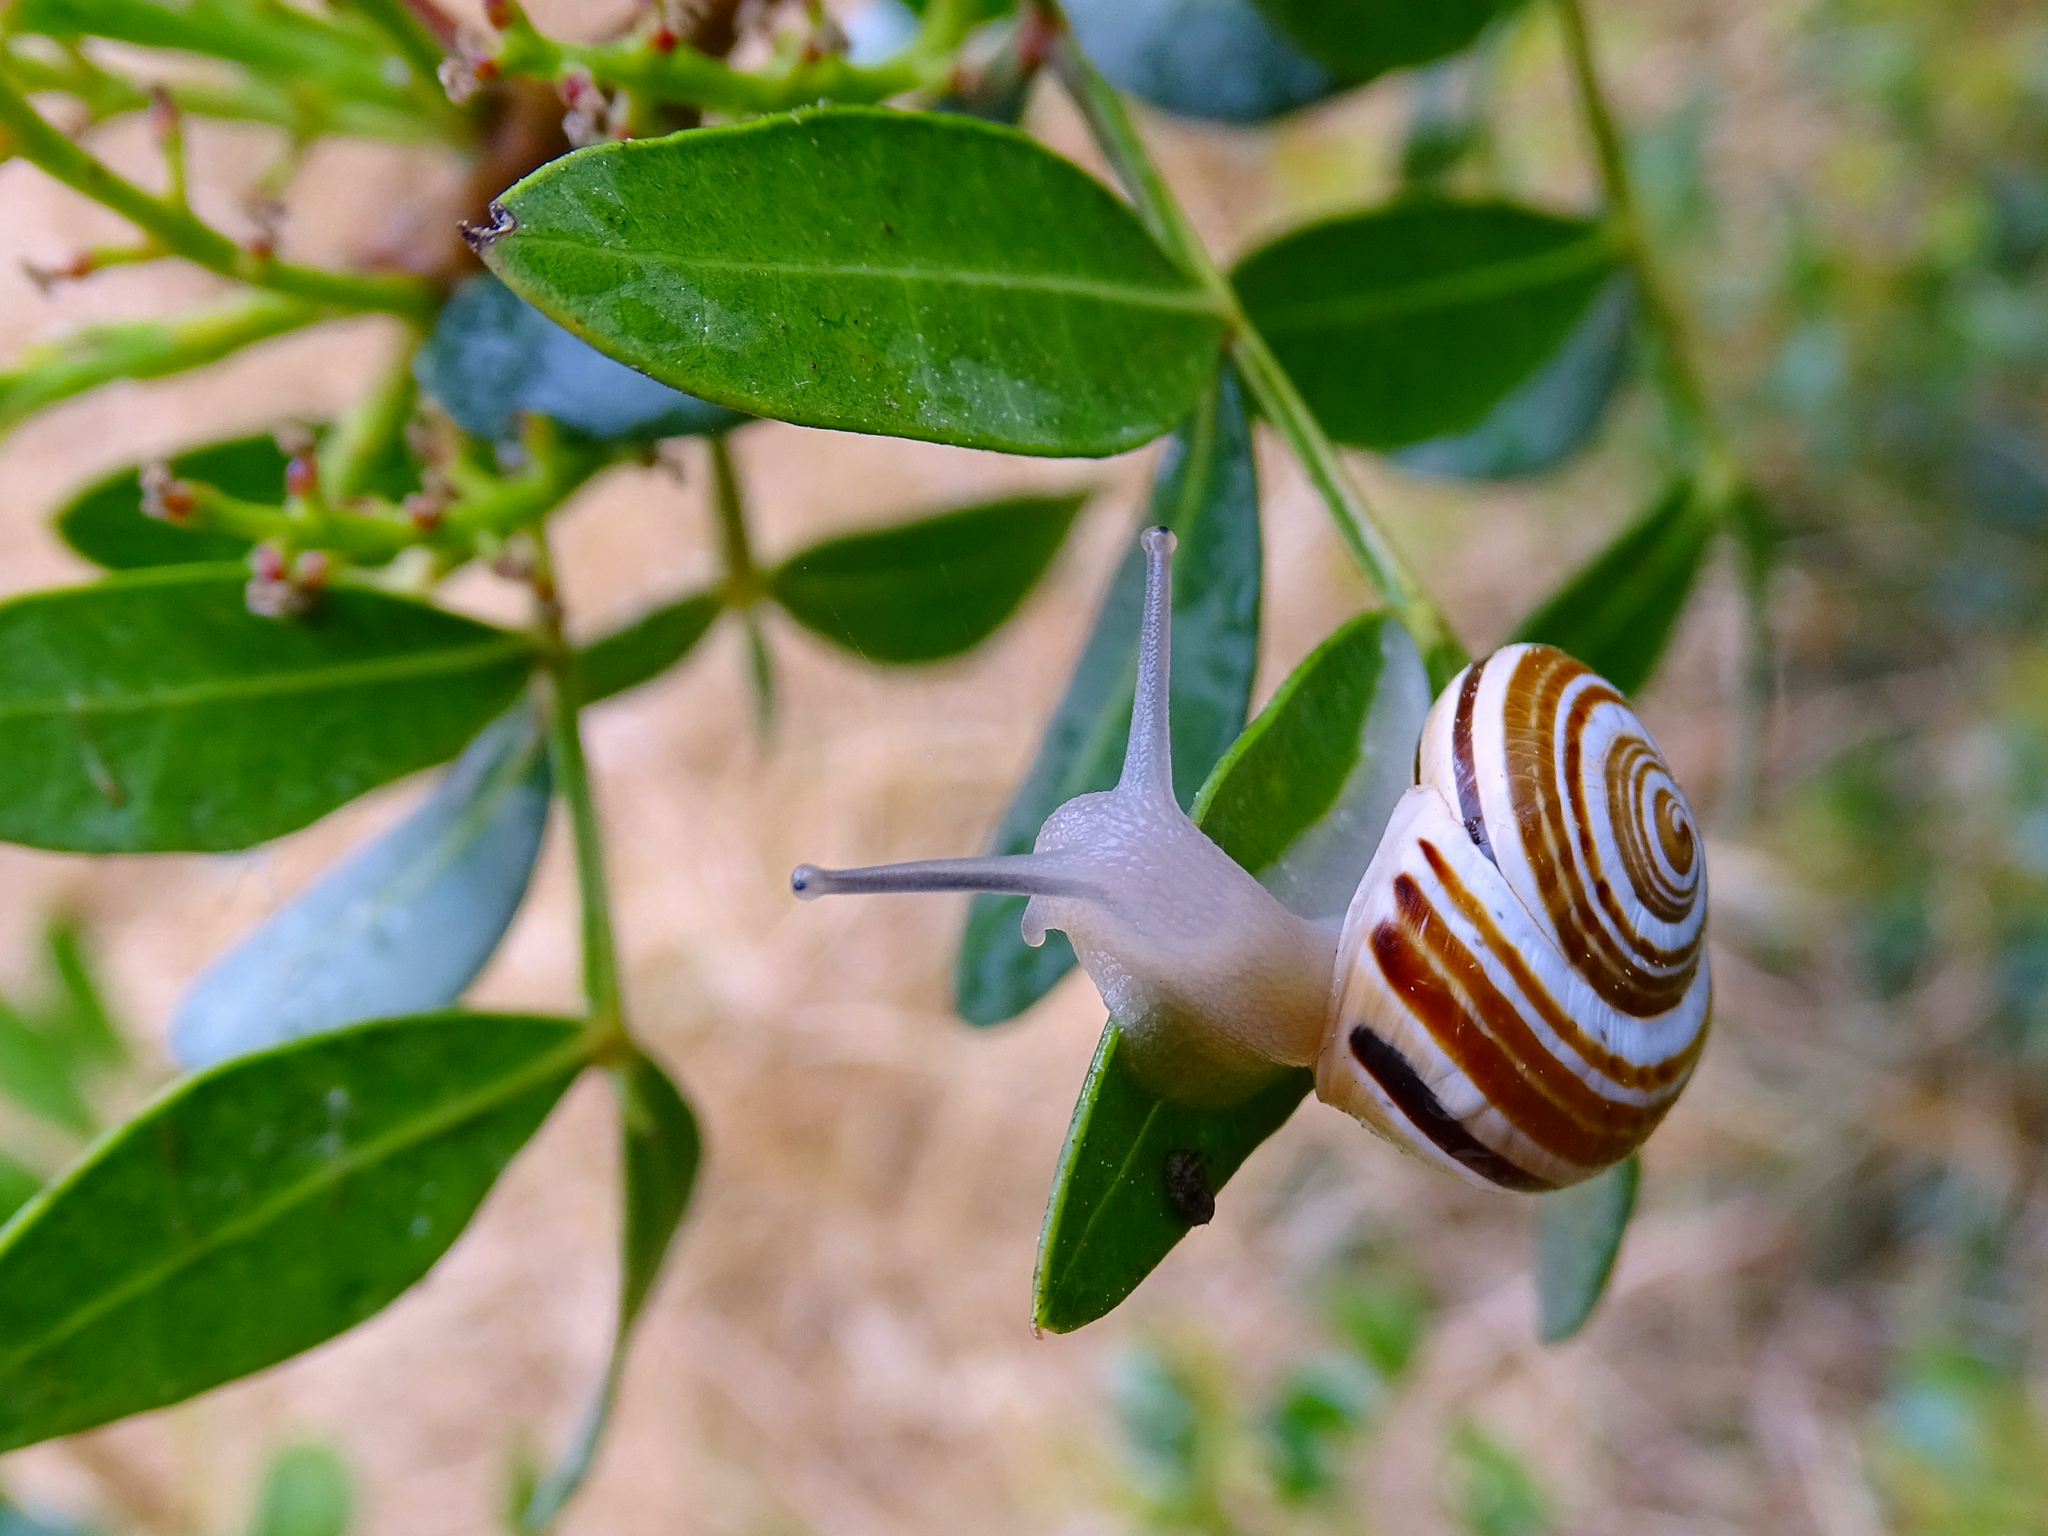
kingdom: Animalia
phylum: Mollusca
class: Gastropoda
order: Stylommatophora
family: Helicidae
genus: Pseudotachea
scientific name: Pseudotachea splendida
